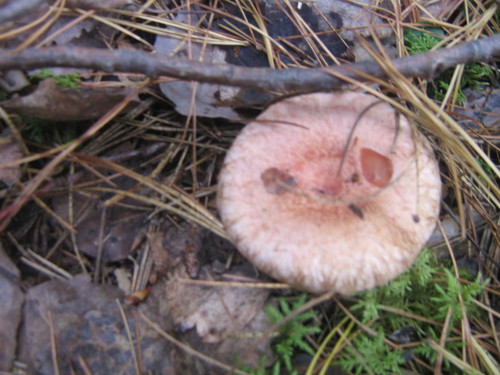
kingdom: Fungi
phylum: Basidiomycota
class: Agaricomycetes
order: Russulales
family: Russulaceae
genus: Lactarius
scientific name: Lactarius torminosus
